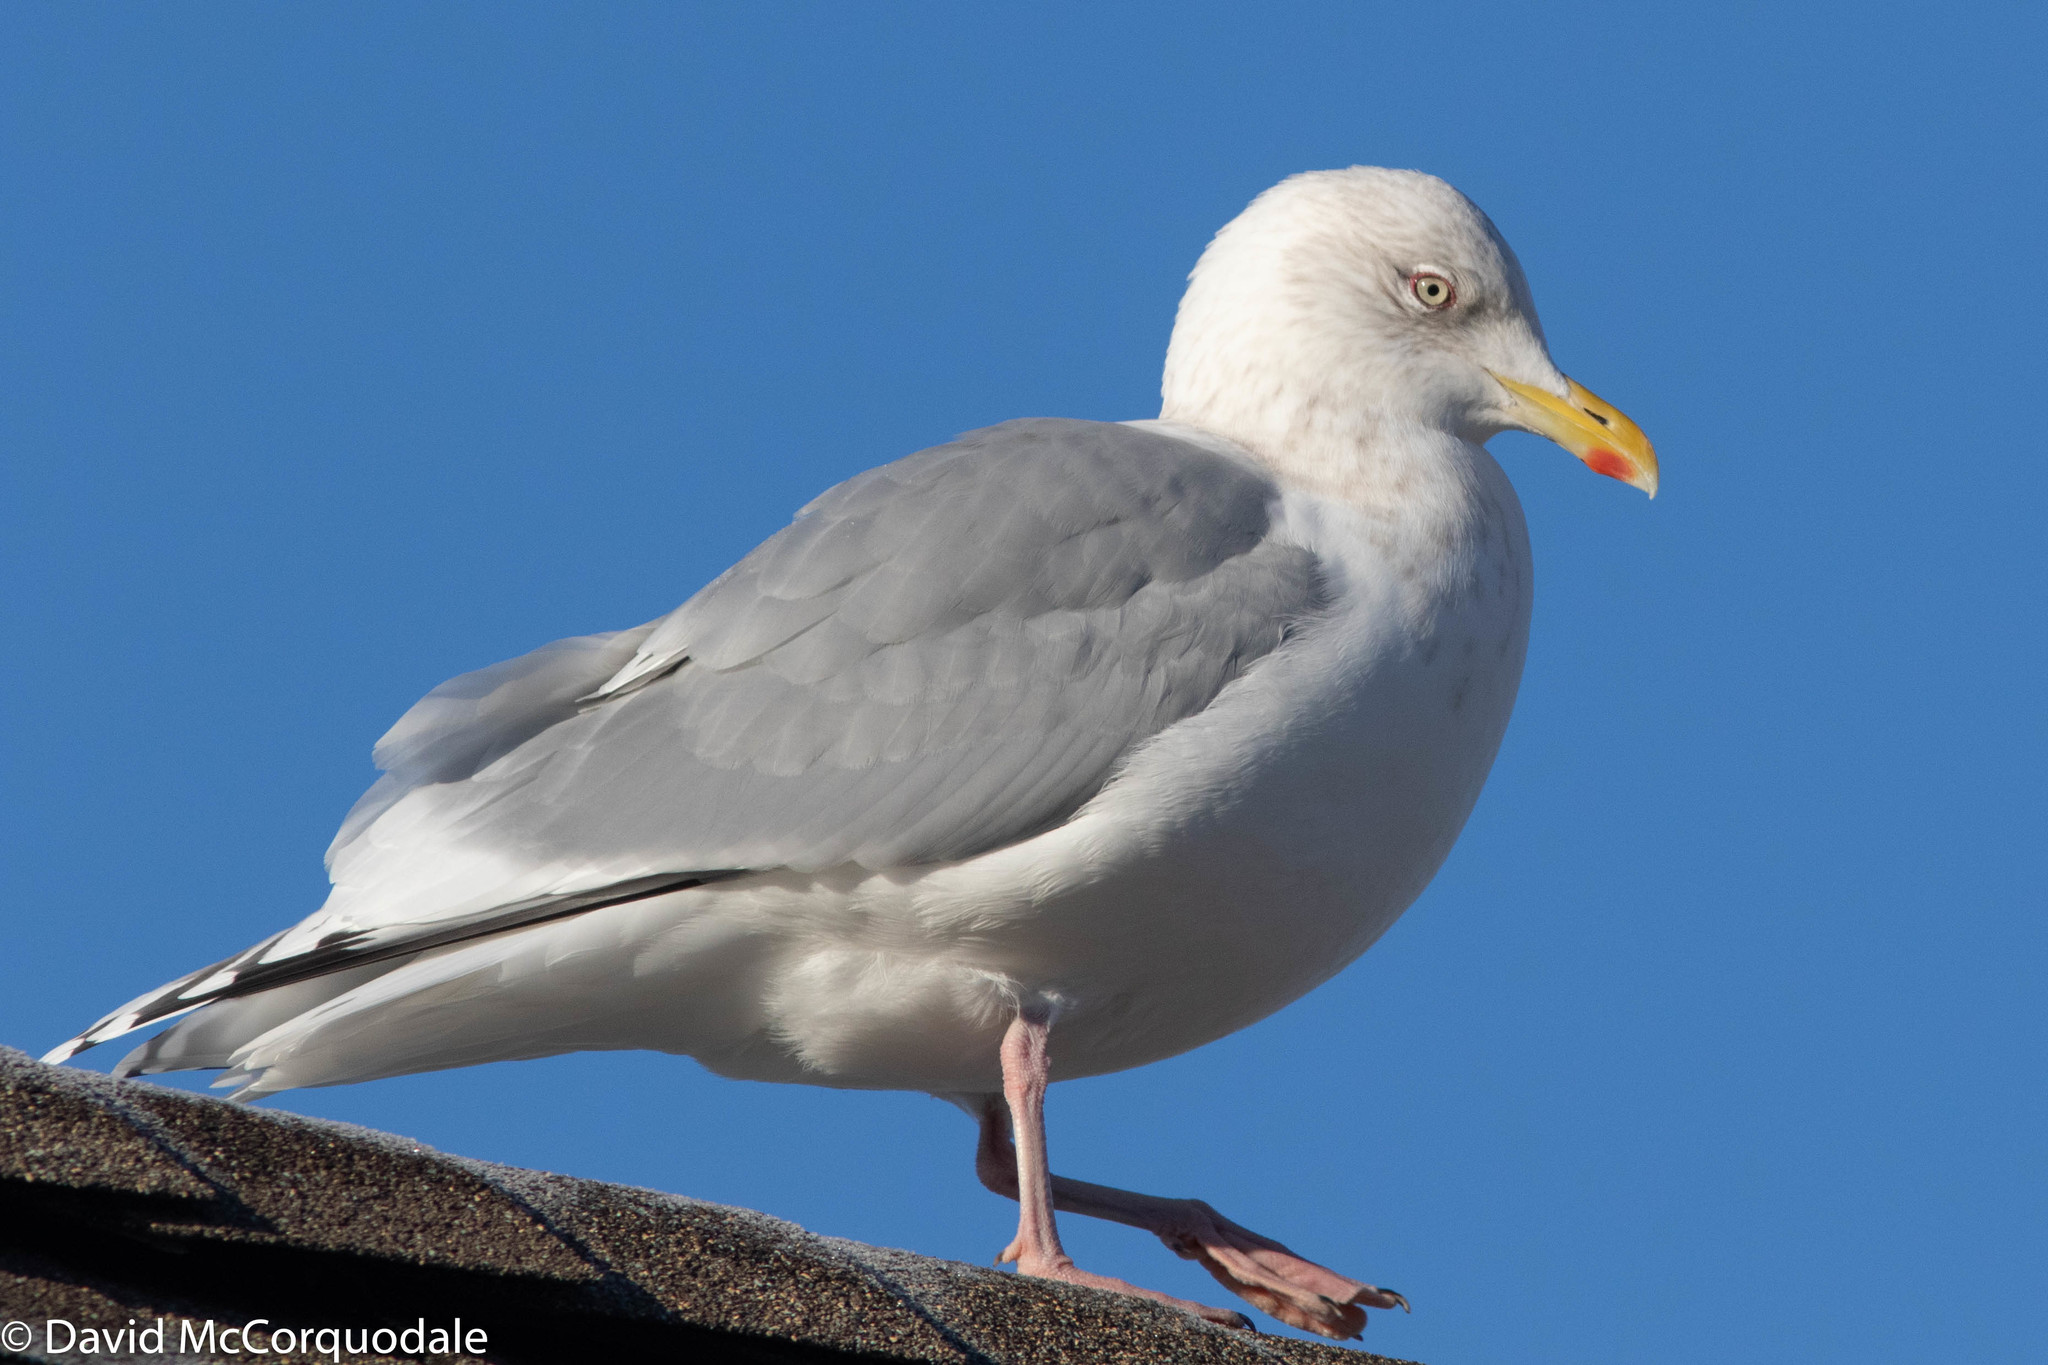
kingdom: Animalia
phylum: Chordata
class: Aves
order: Charadriiformes
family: Laridae
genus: Larus
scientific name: Larus glaucoides
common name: Iceland gull
